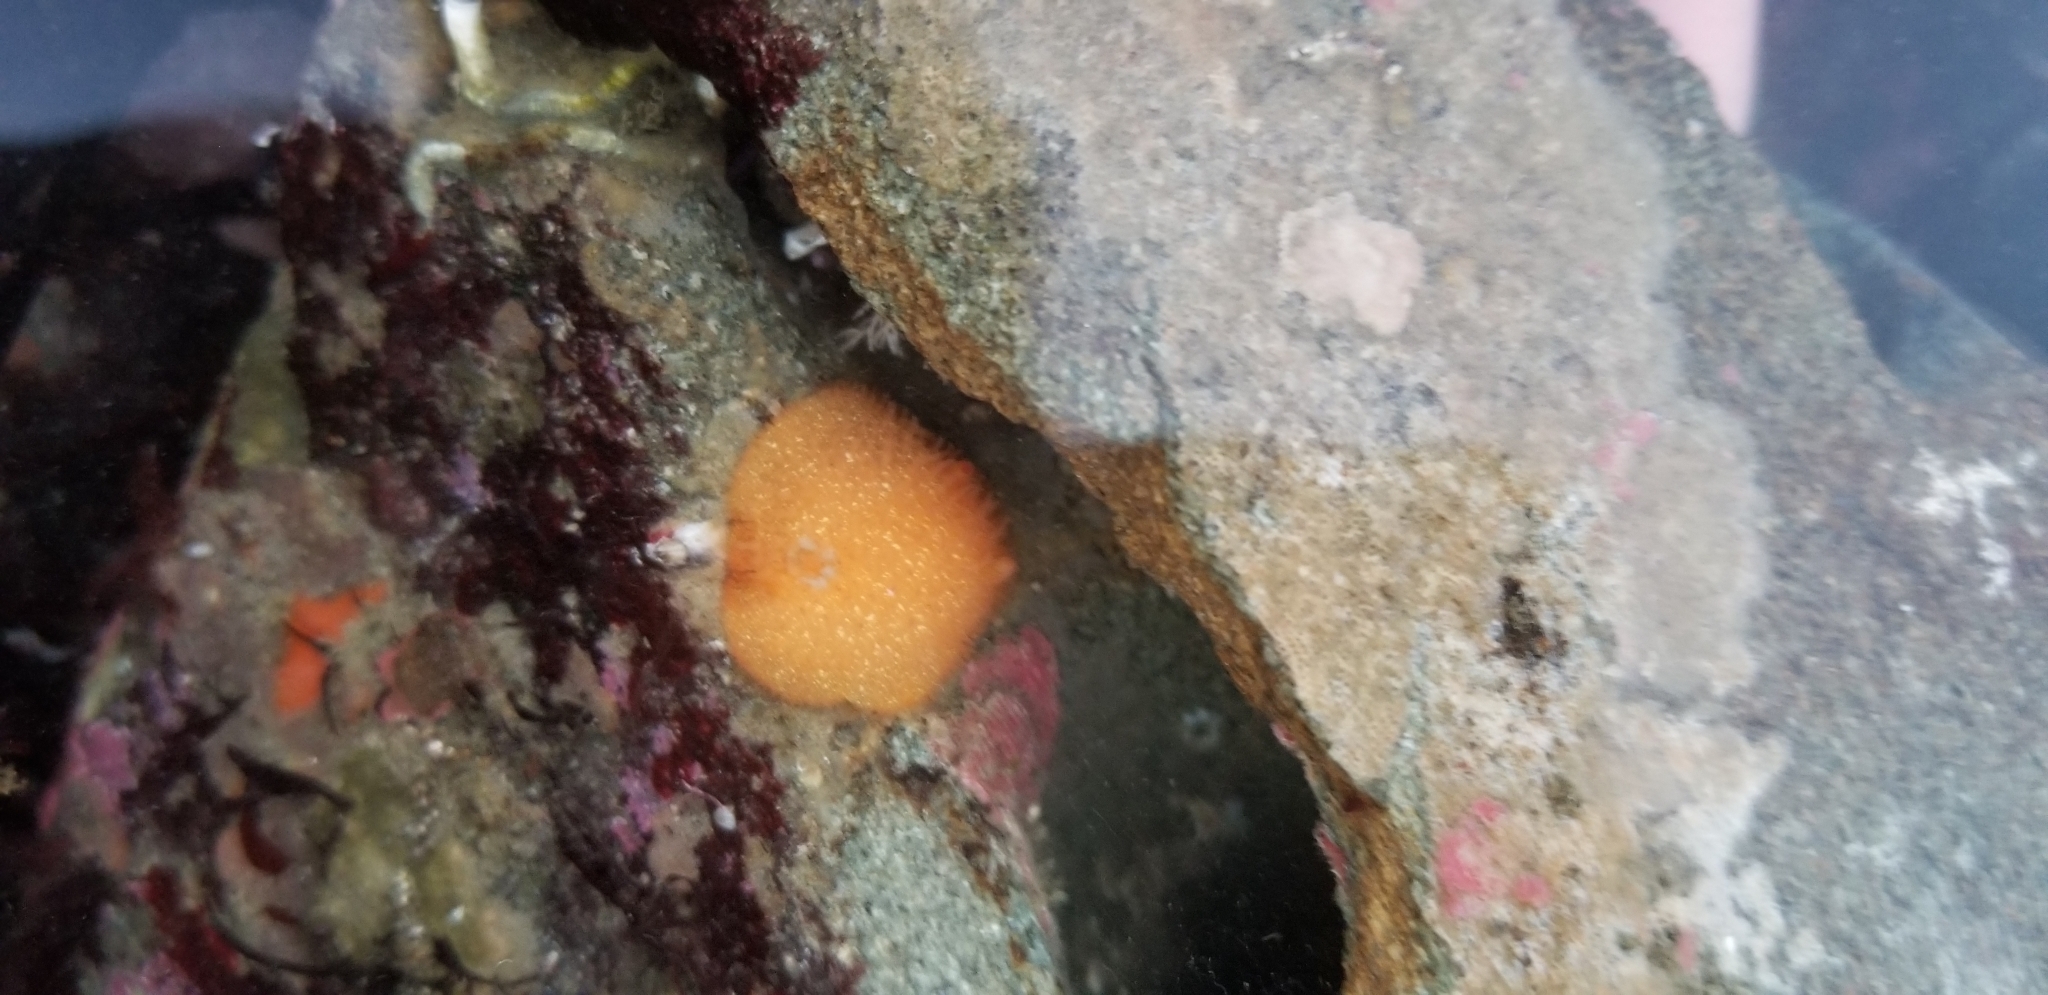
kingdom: Animalia
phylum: Mollusca
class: Gastropoda
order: Nudibranchia
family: Onchidorididae
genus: Acanthodoris
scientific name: Acanthodoris lutea
